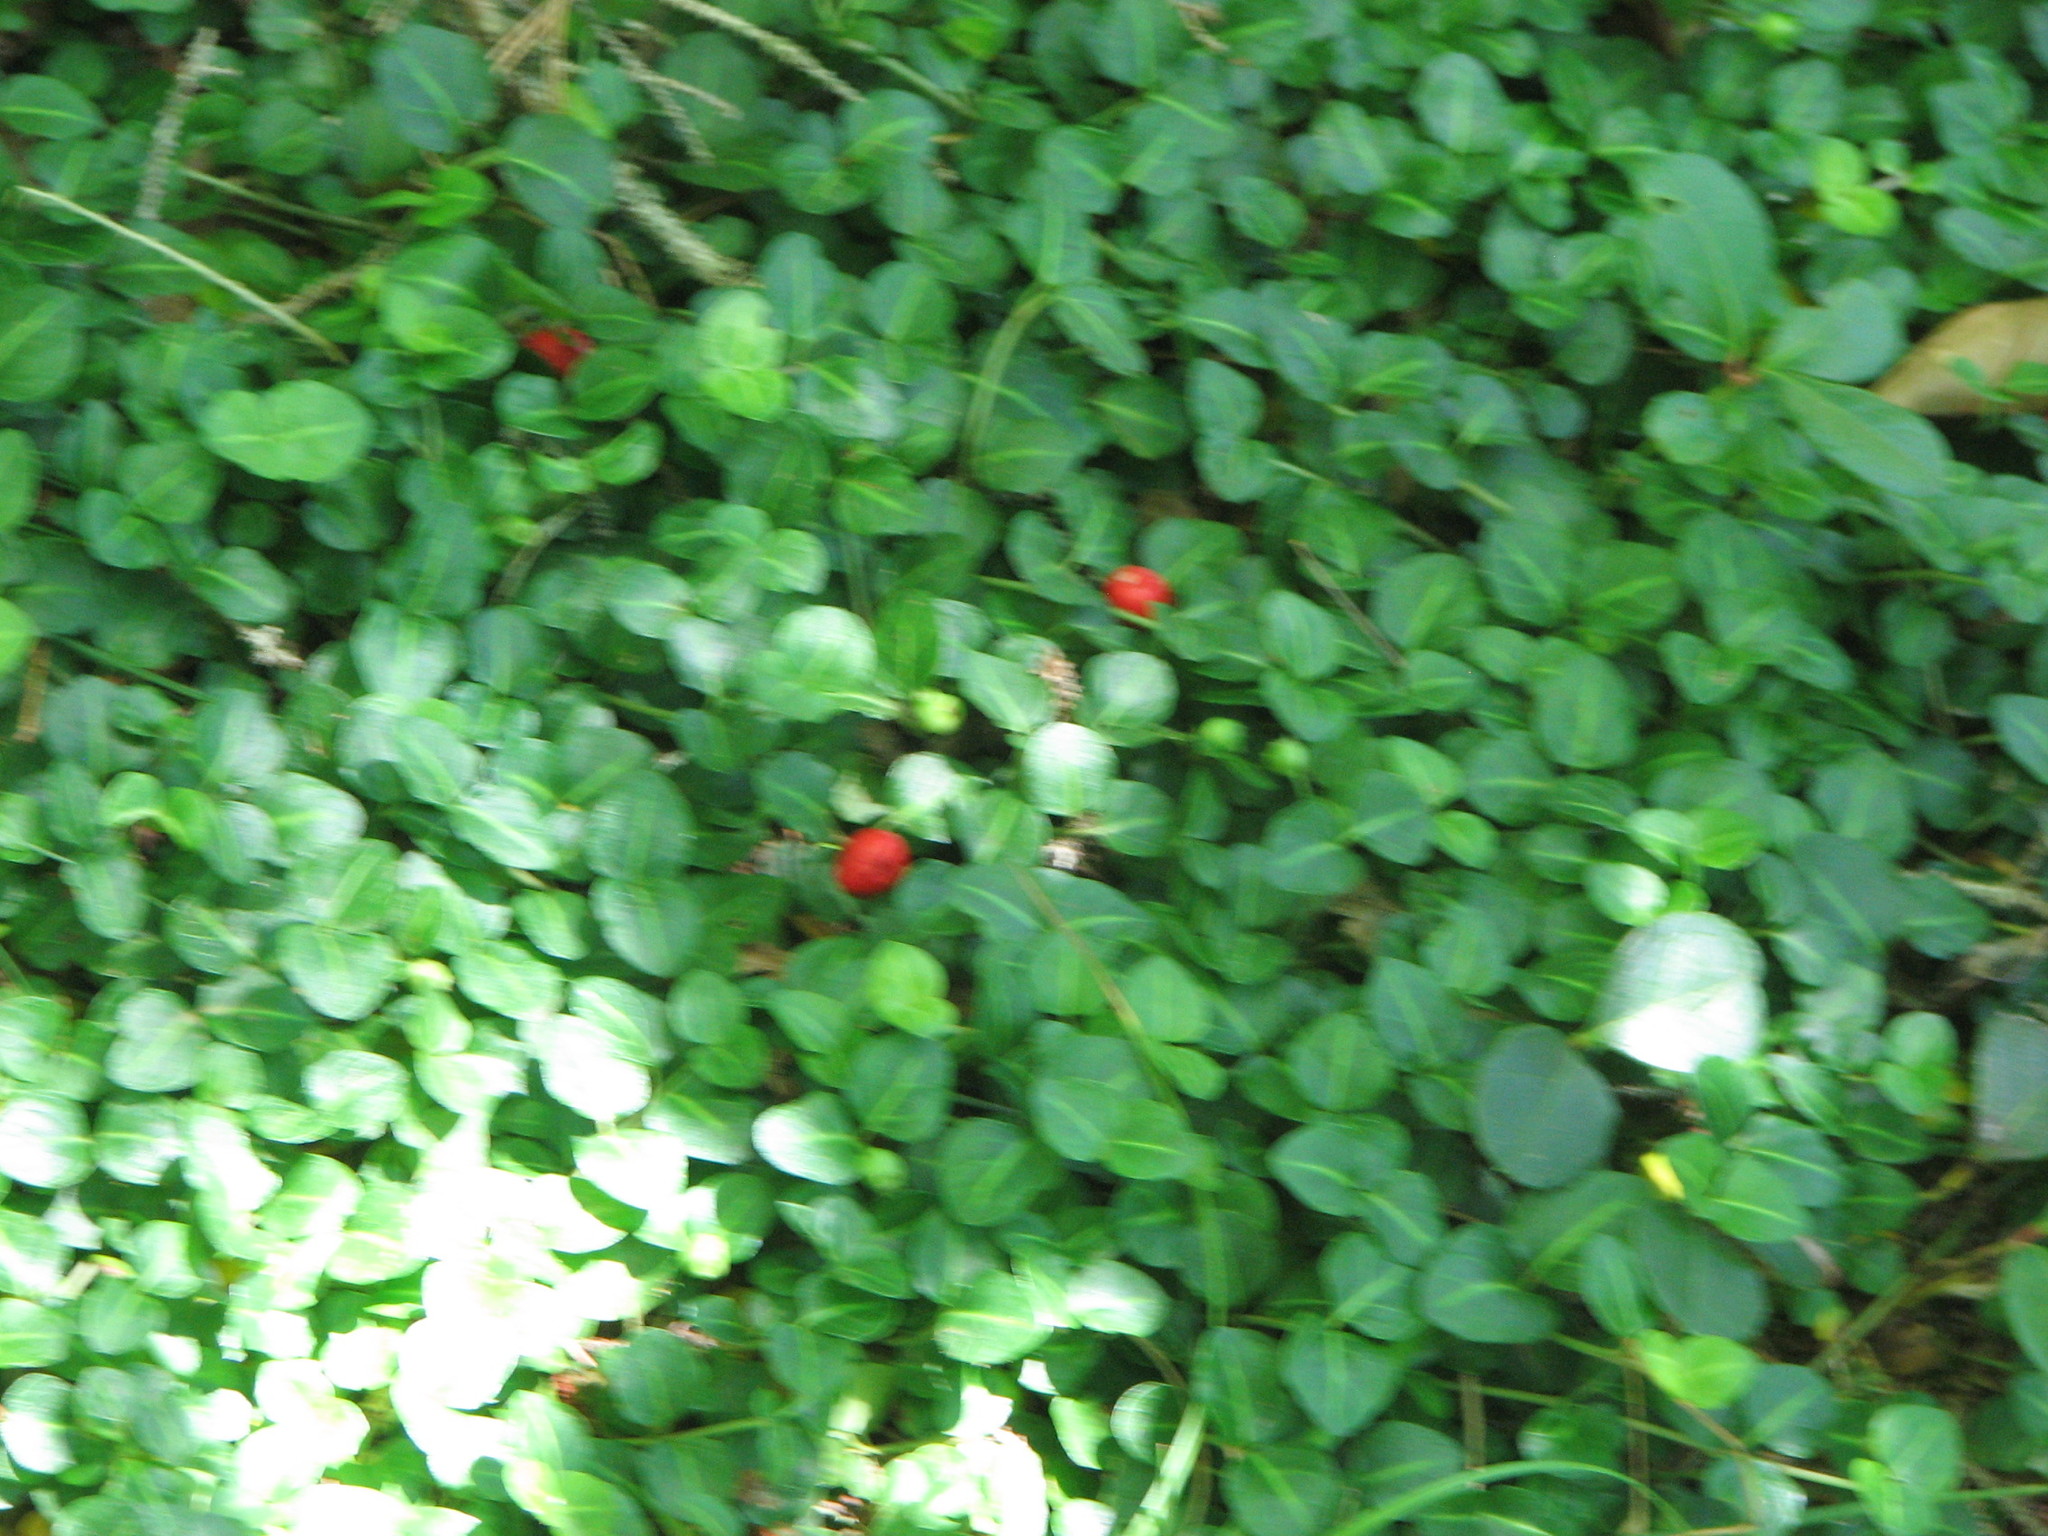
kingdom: Plantae
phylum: Tracheophyta
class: Magnoliopsida
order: Gentianales
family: Rubiaceae
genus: Mitchella
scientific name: Mitchella repens
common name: Partridge-berry
